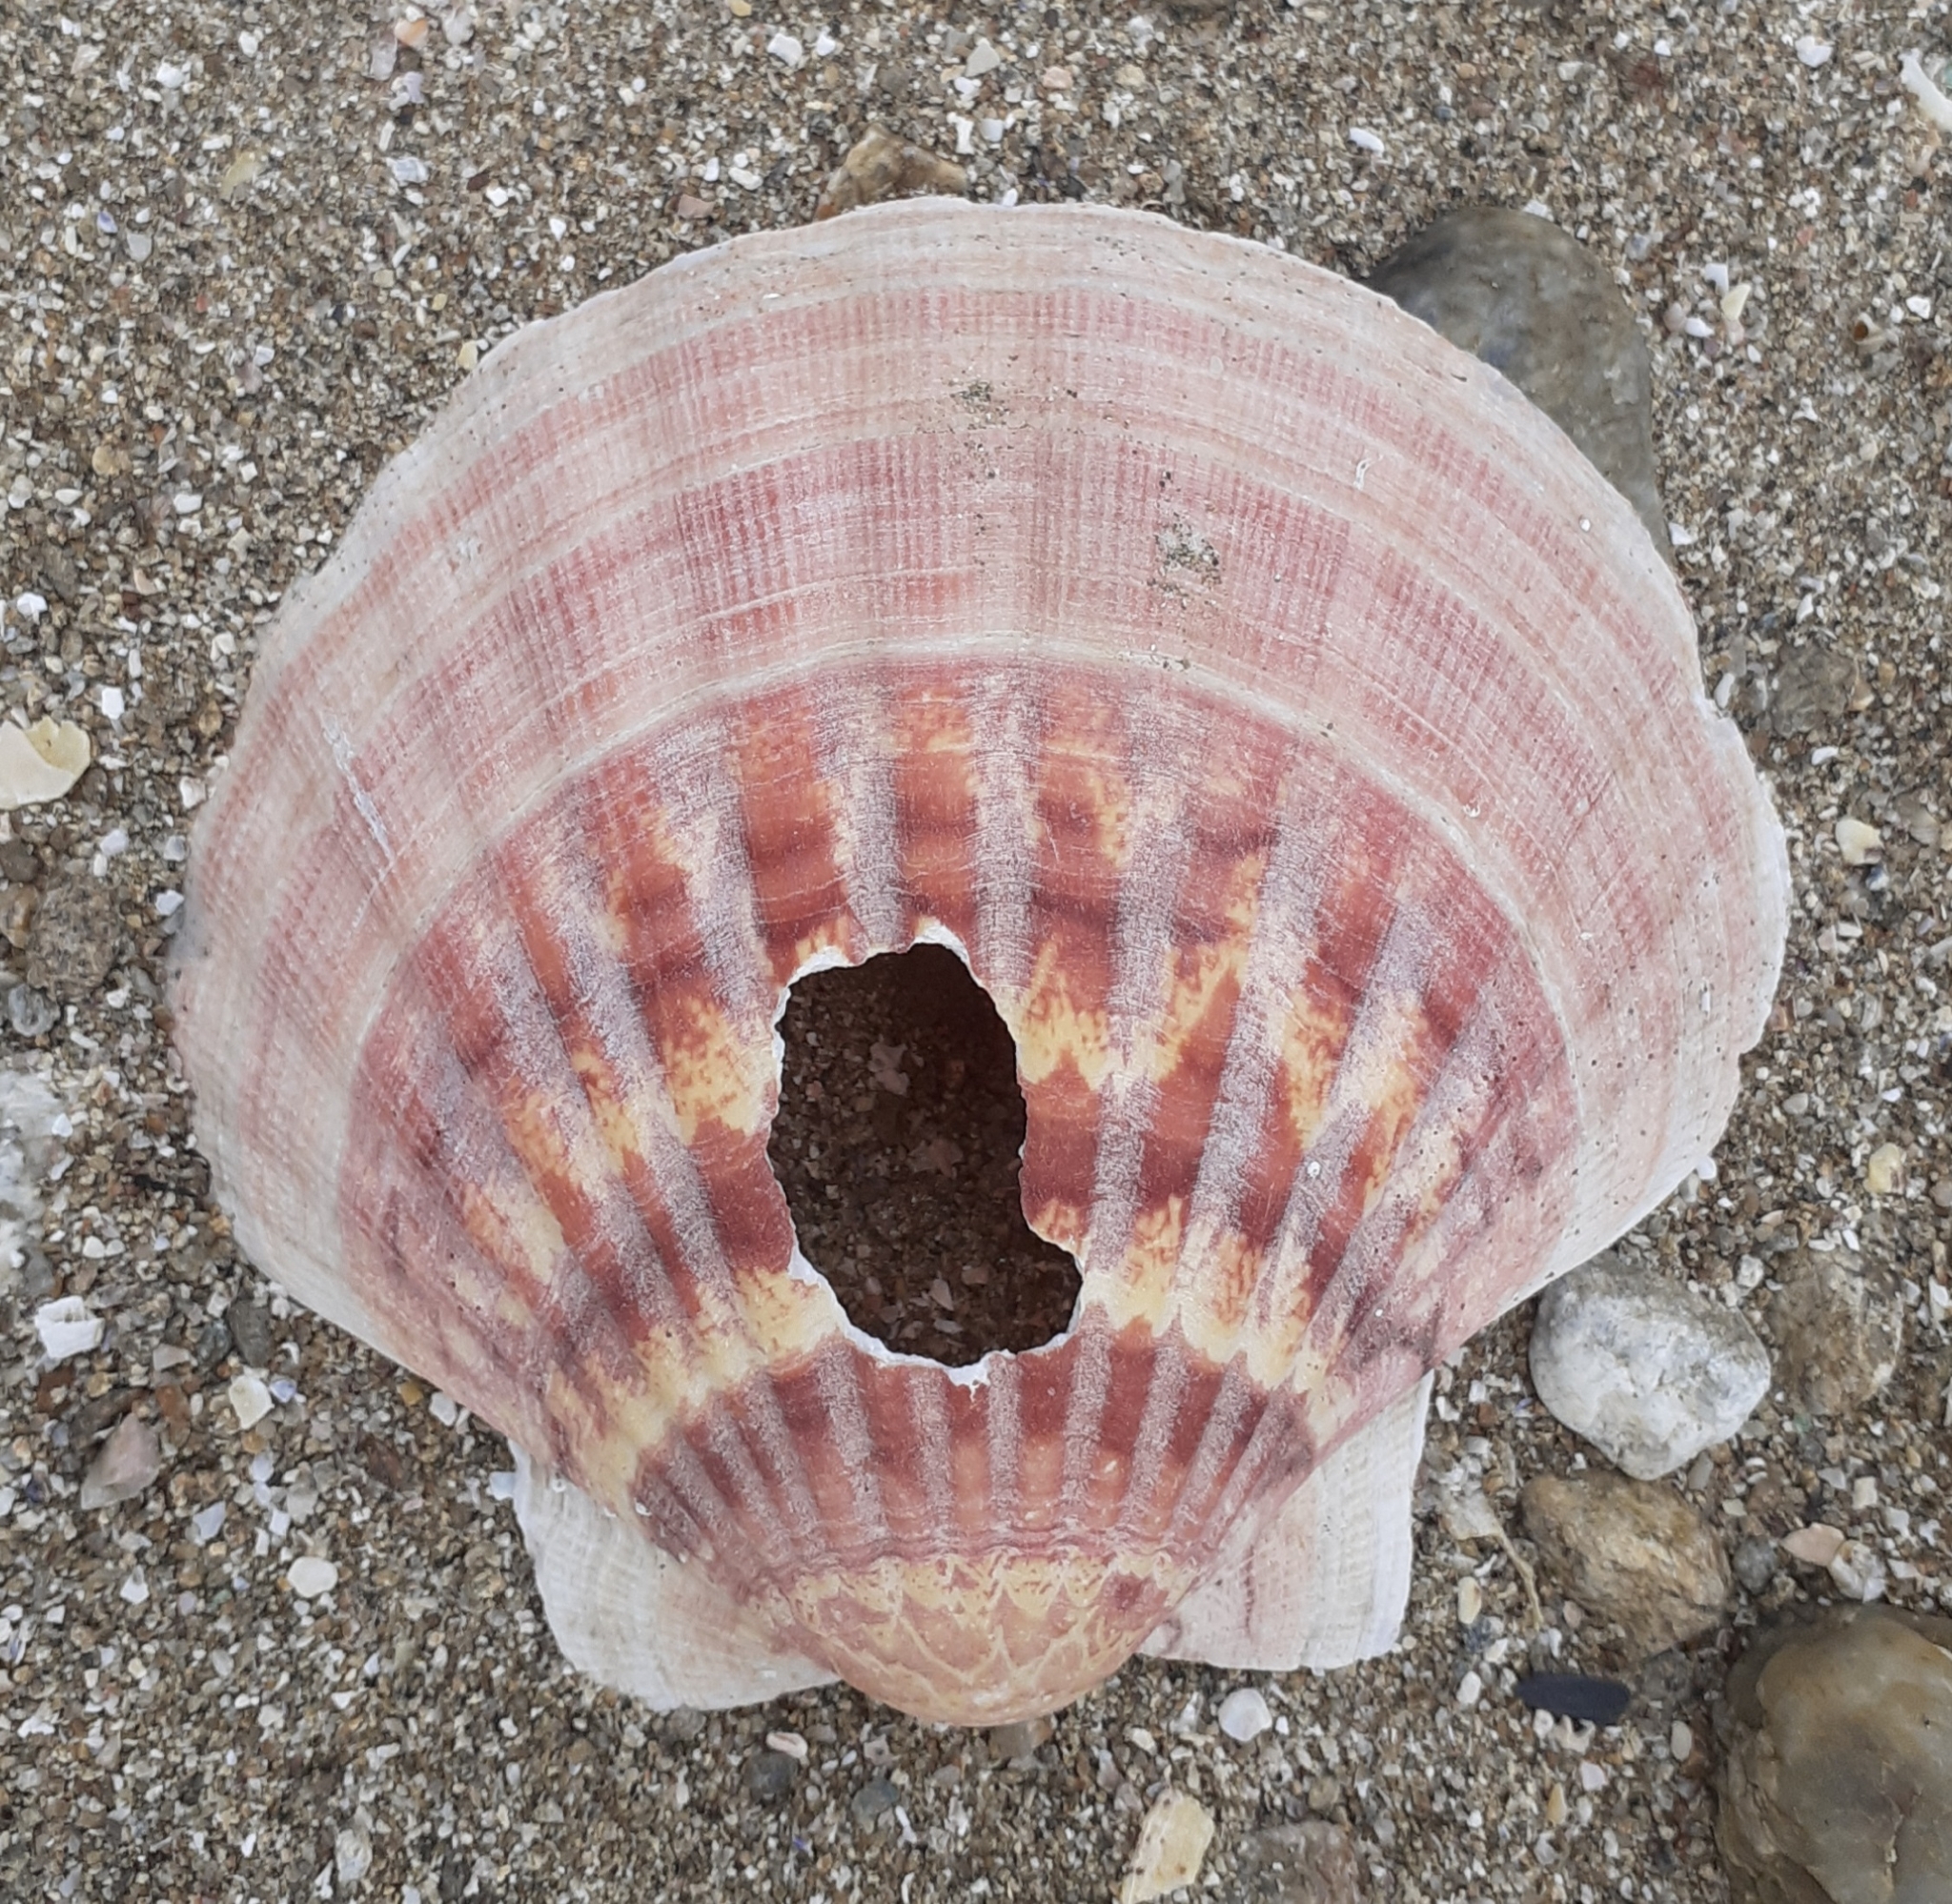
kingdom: Animalia
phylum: Mollusca
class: Bivalvia
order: Pectinida
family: Pectinidae
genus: Pecten
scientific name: Pecten maximus
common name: Great scallop
